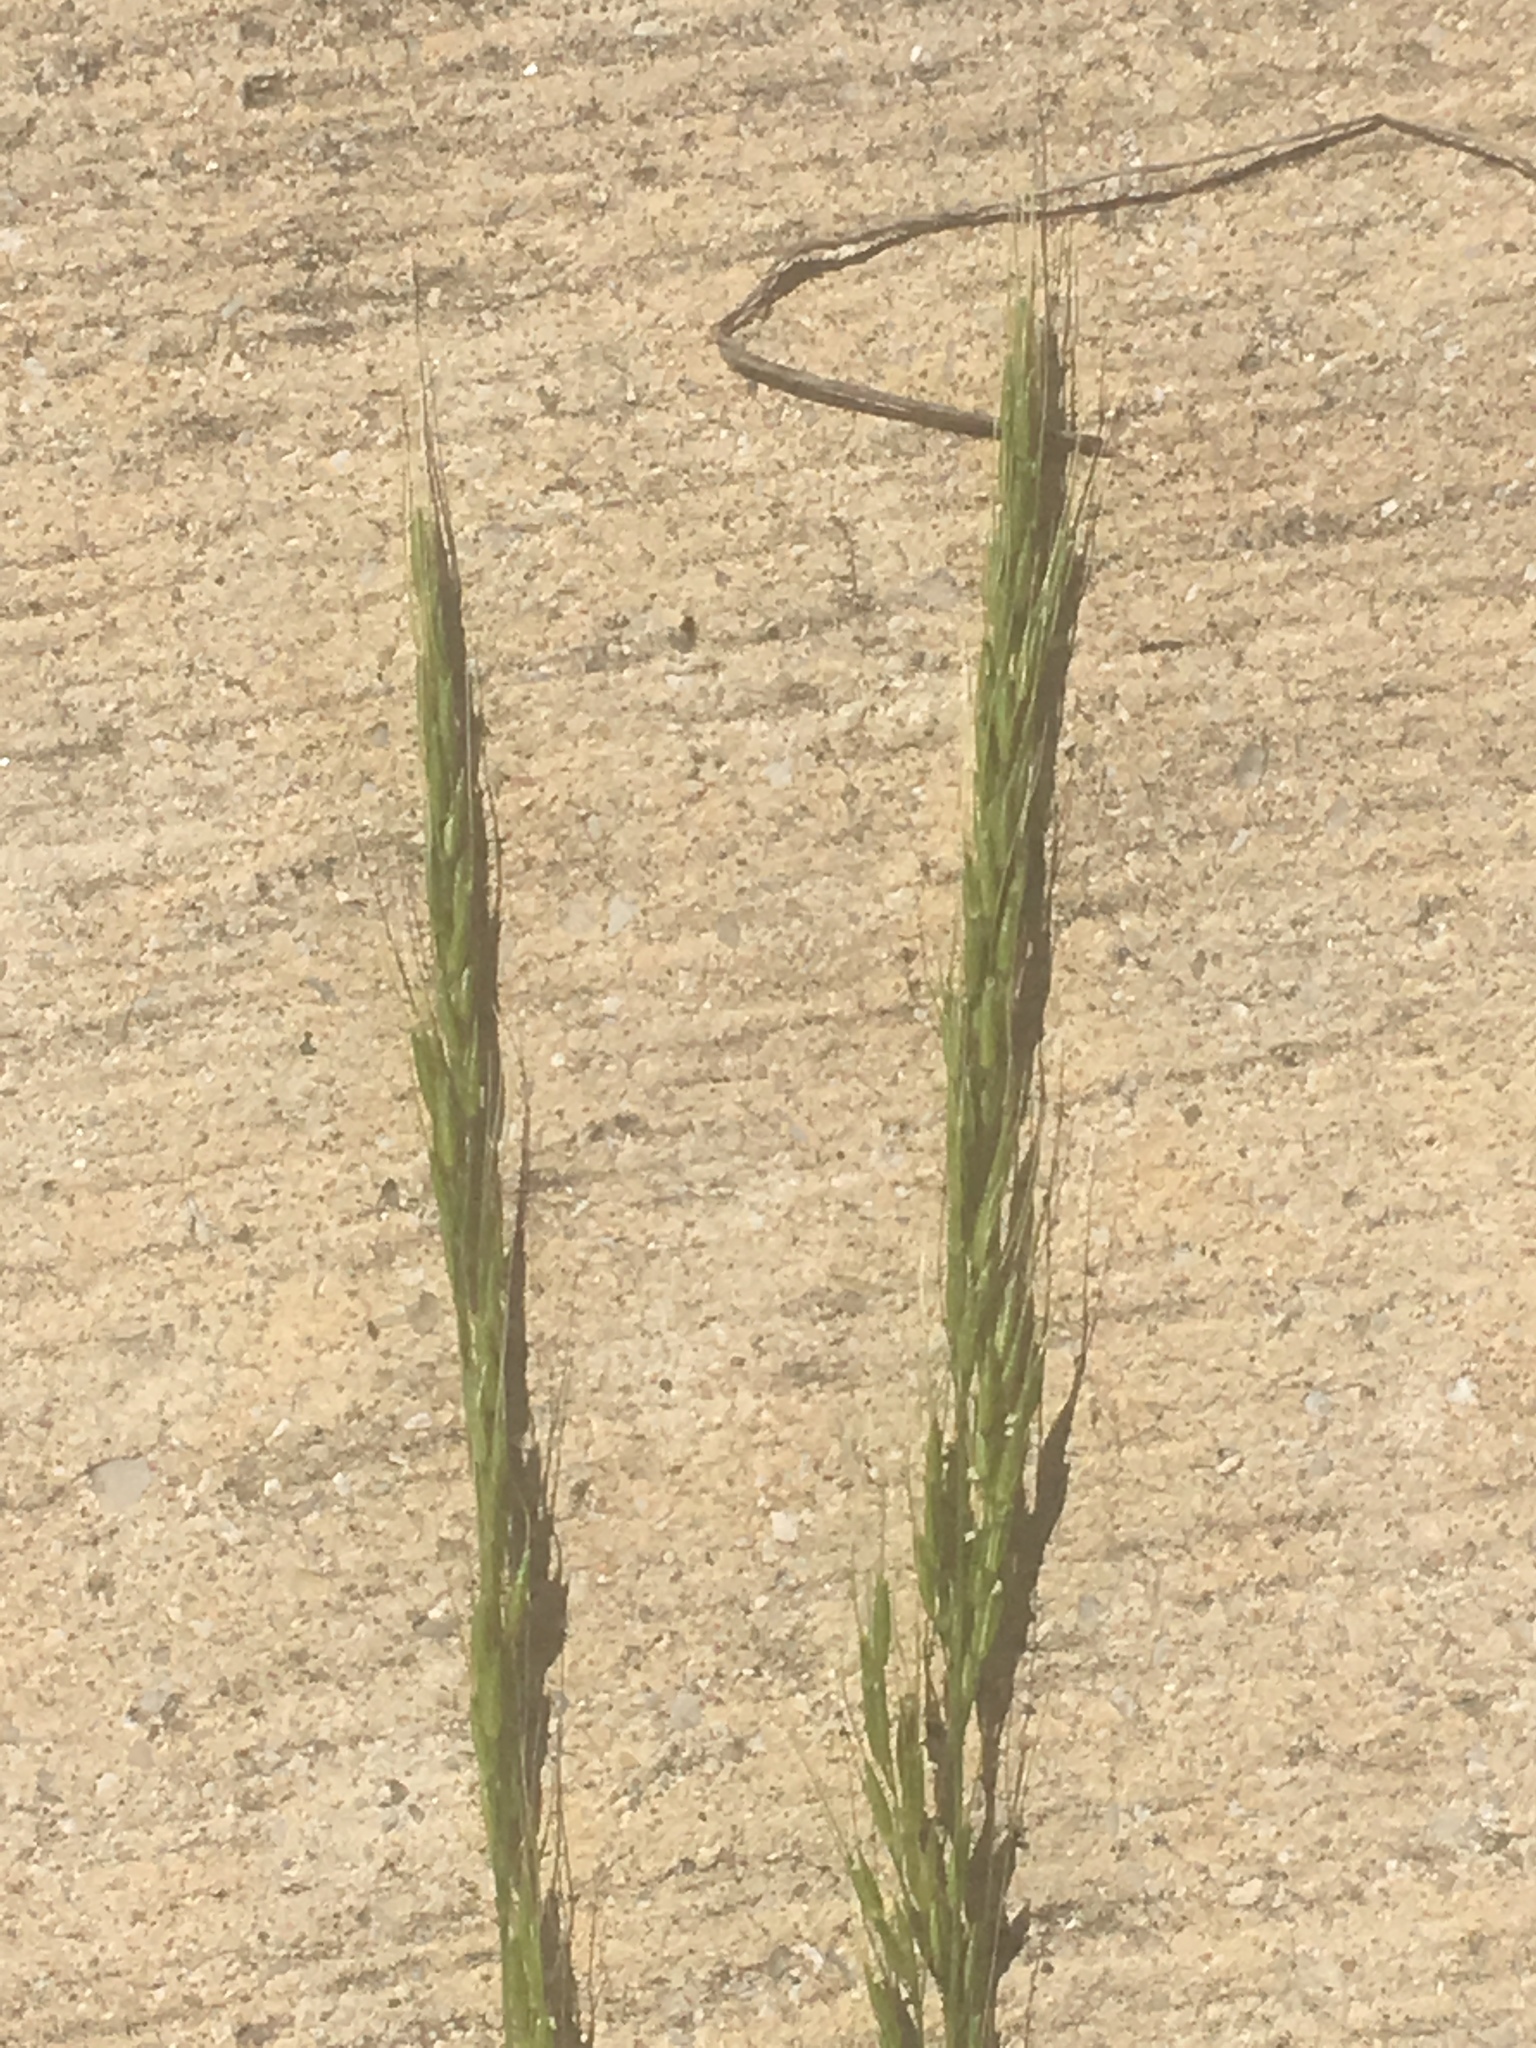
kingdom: Plantae
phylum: Tracheophyta
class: Liliopsida
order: Poales
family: Poaceae
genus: Limnodea
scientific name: Limnodea arkansana
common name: Ozark-grass
